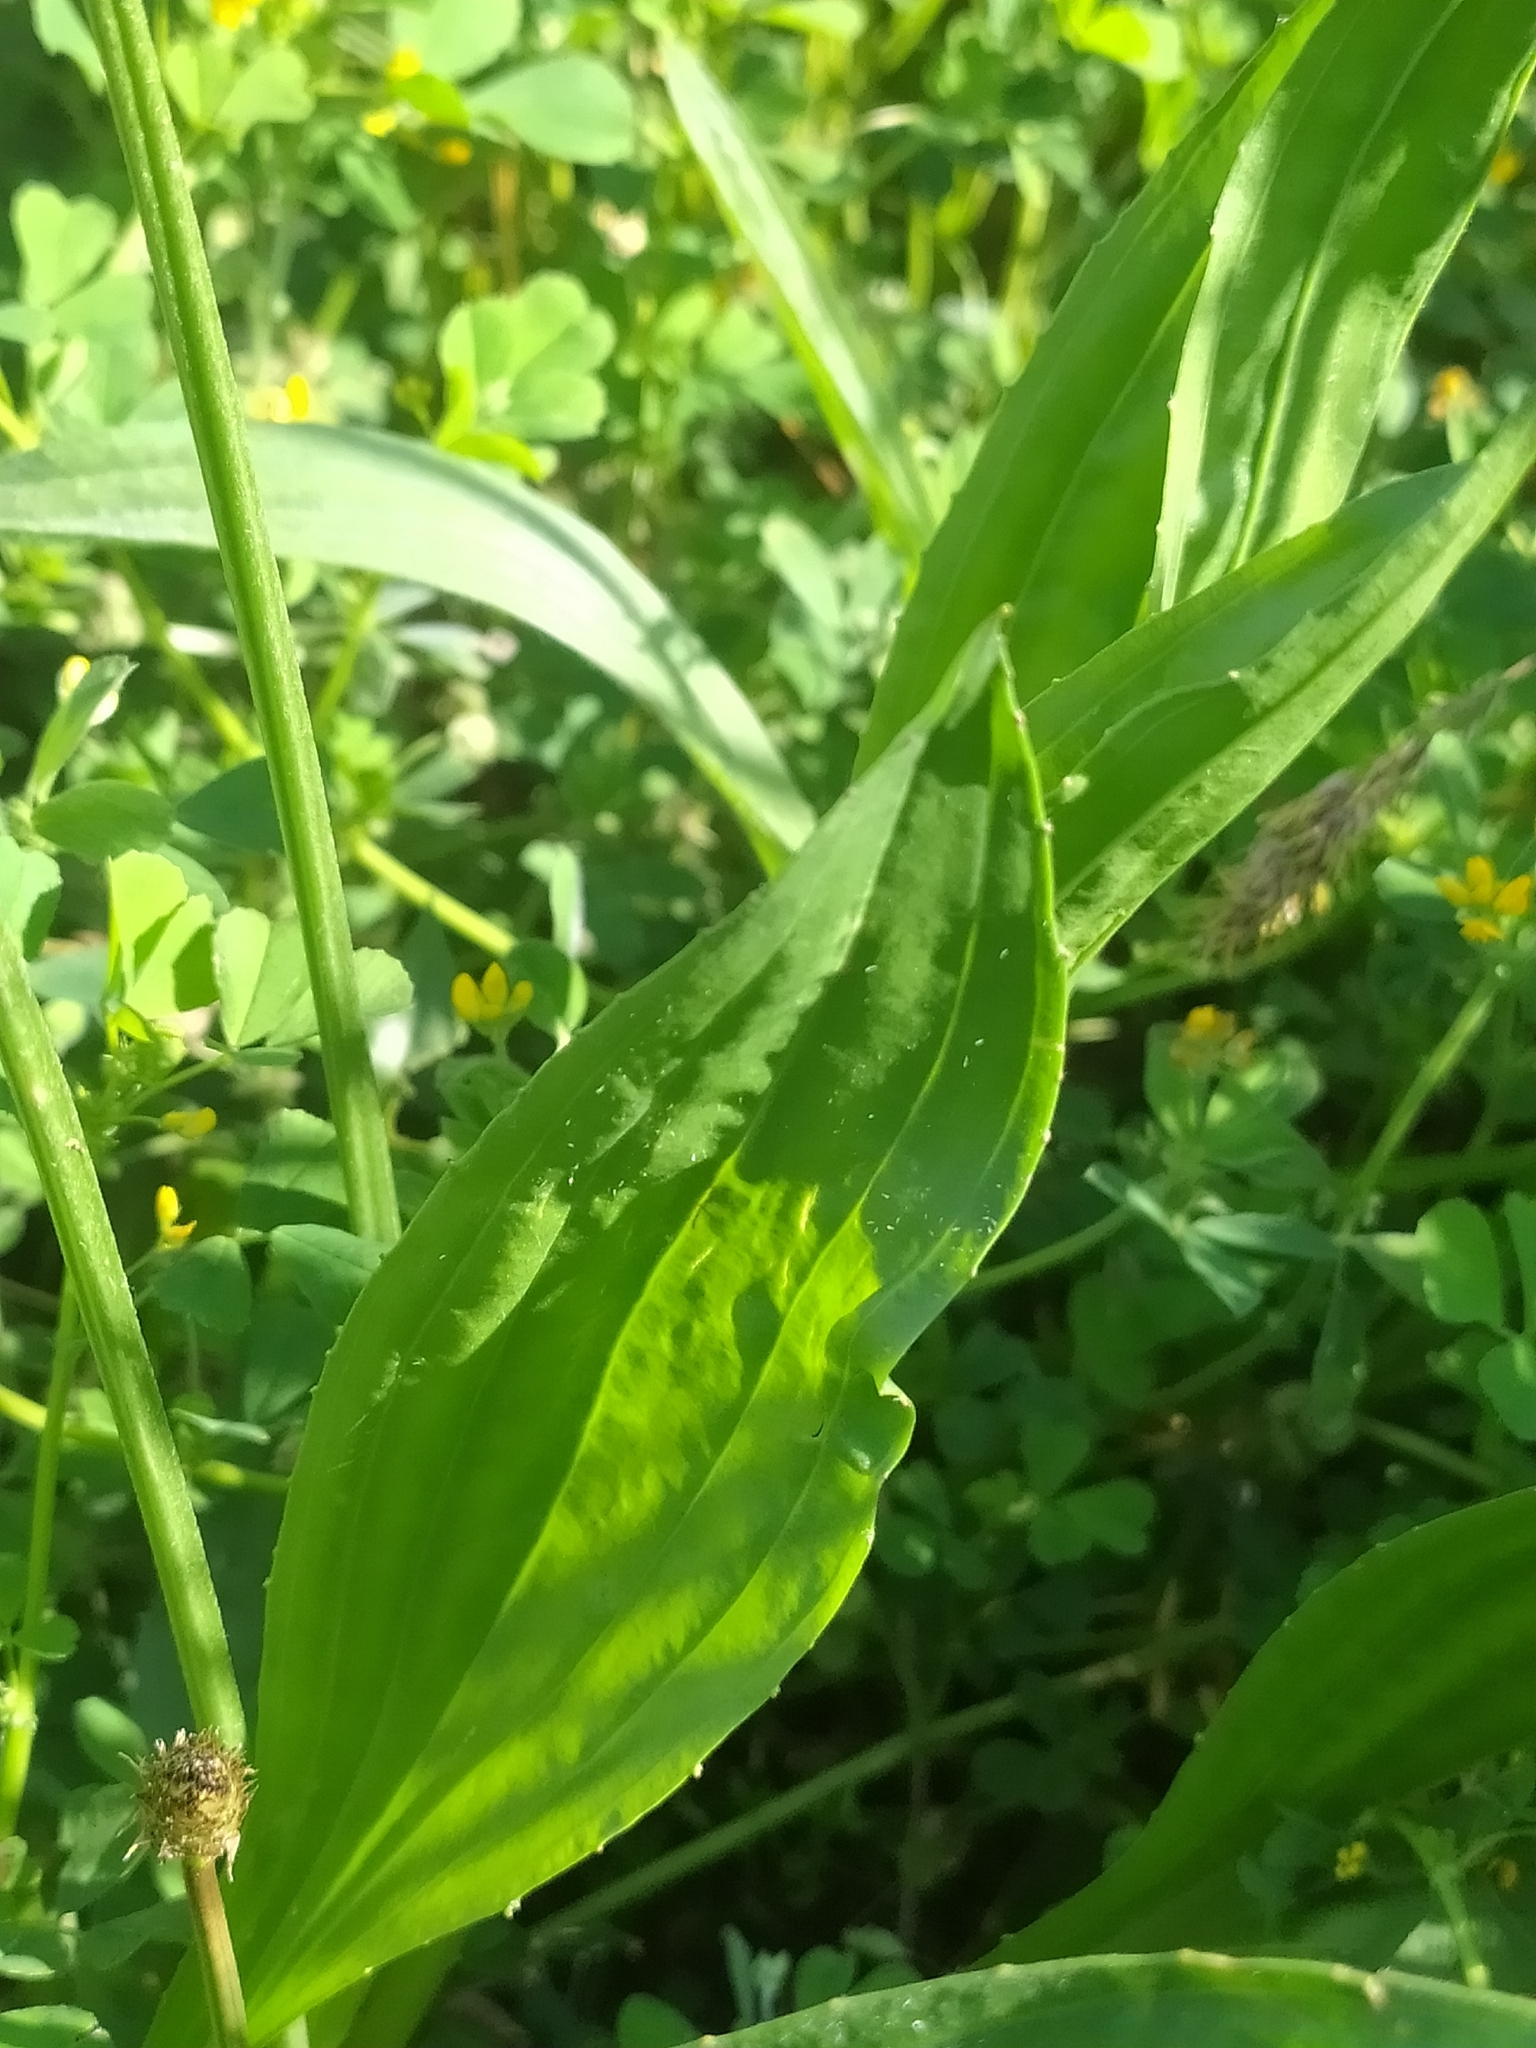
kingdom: Plantae
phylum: Tracheophyta
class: Magnoliopsida
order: Lamiales
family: Plantaginaceae
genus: Plantago
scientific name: Plantago lanceolata
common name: Ribwort plantain
